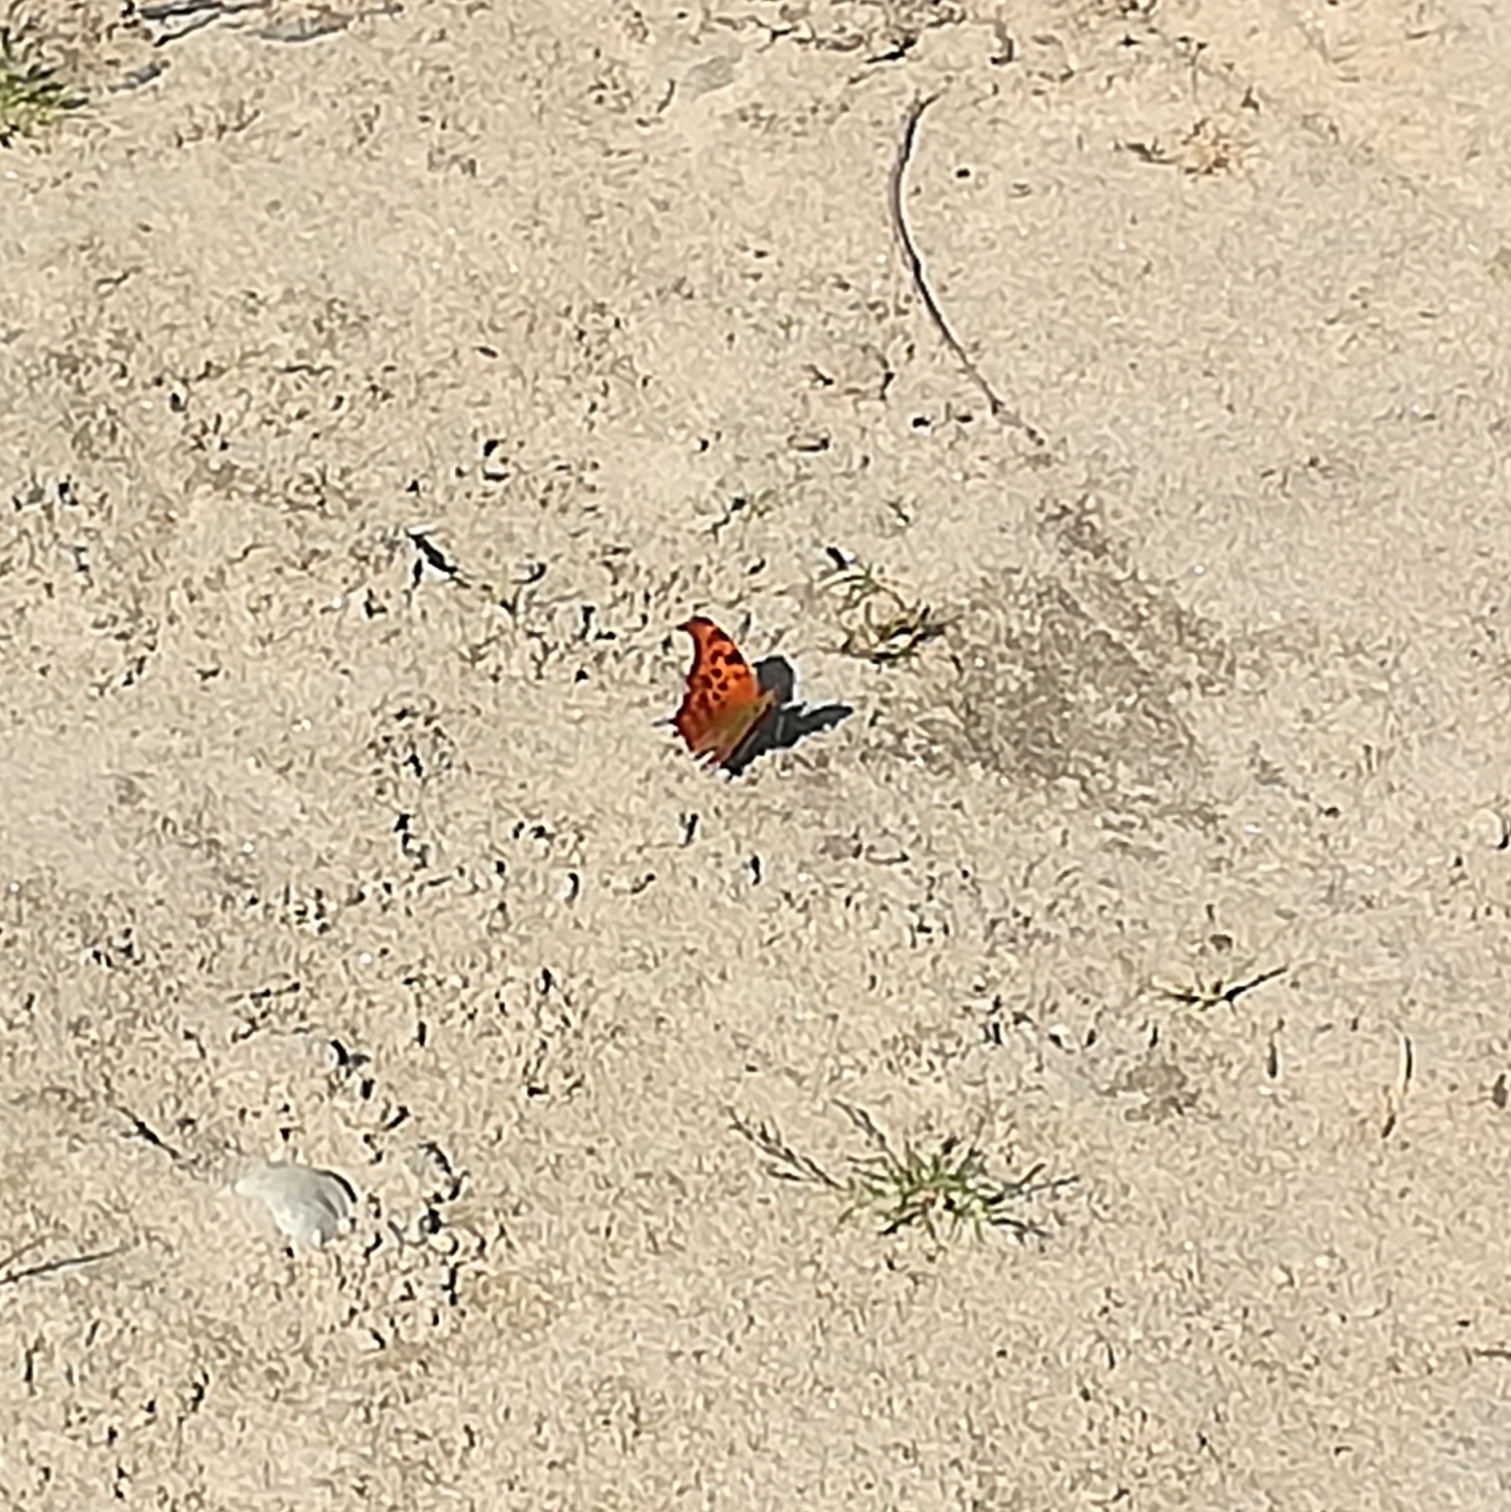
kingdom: Animalia
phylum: Arthropoda
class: Insecta
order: Lepidoptera
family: Nymphalidae
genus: Polygonia
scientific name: Polygonia interrogationis
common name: Question mark
